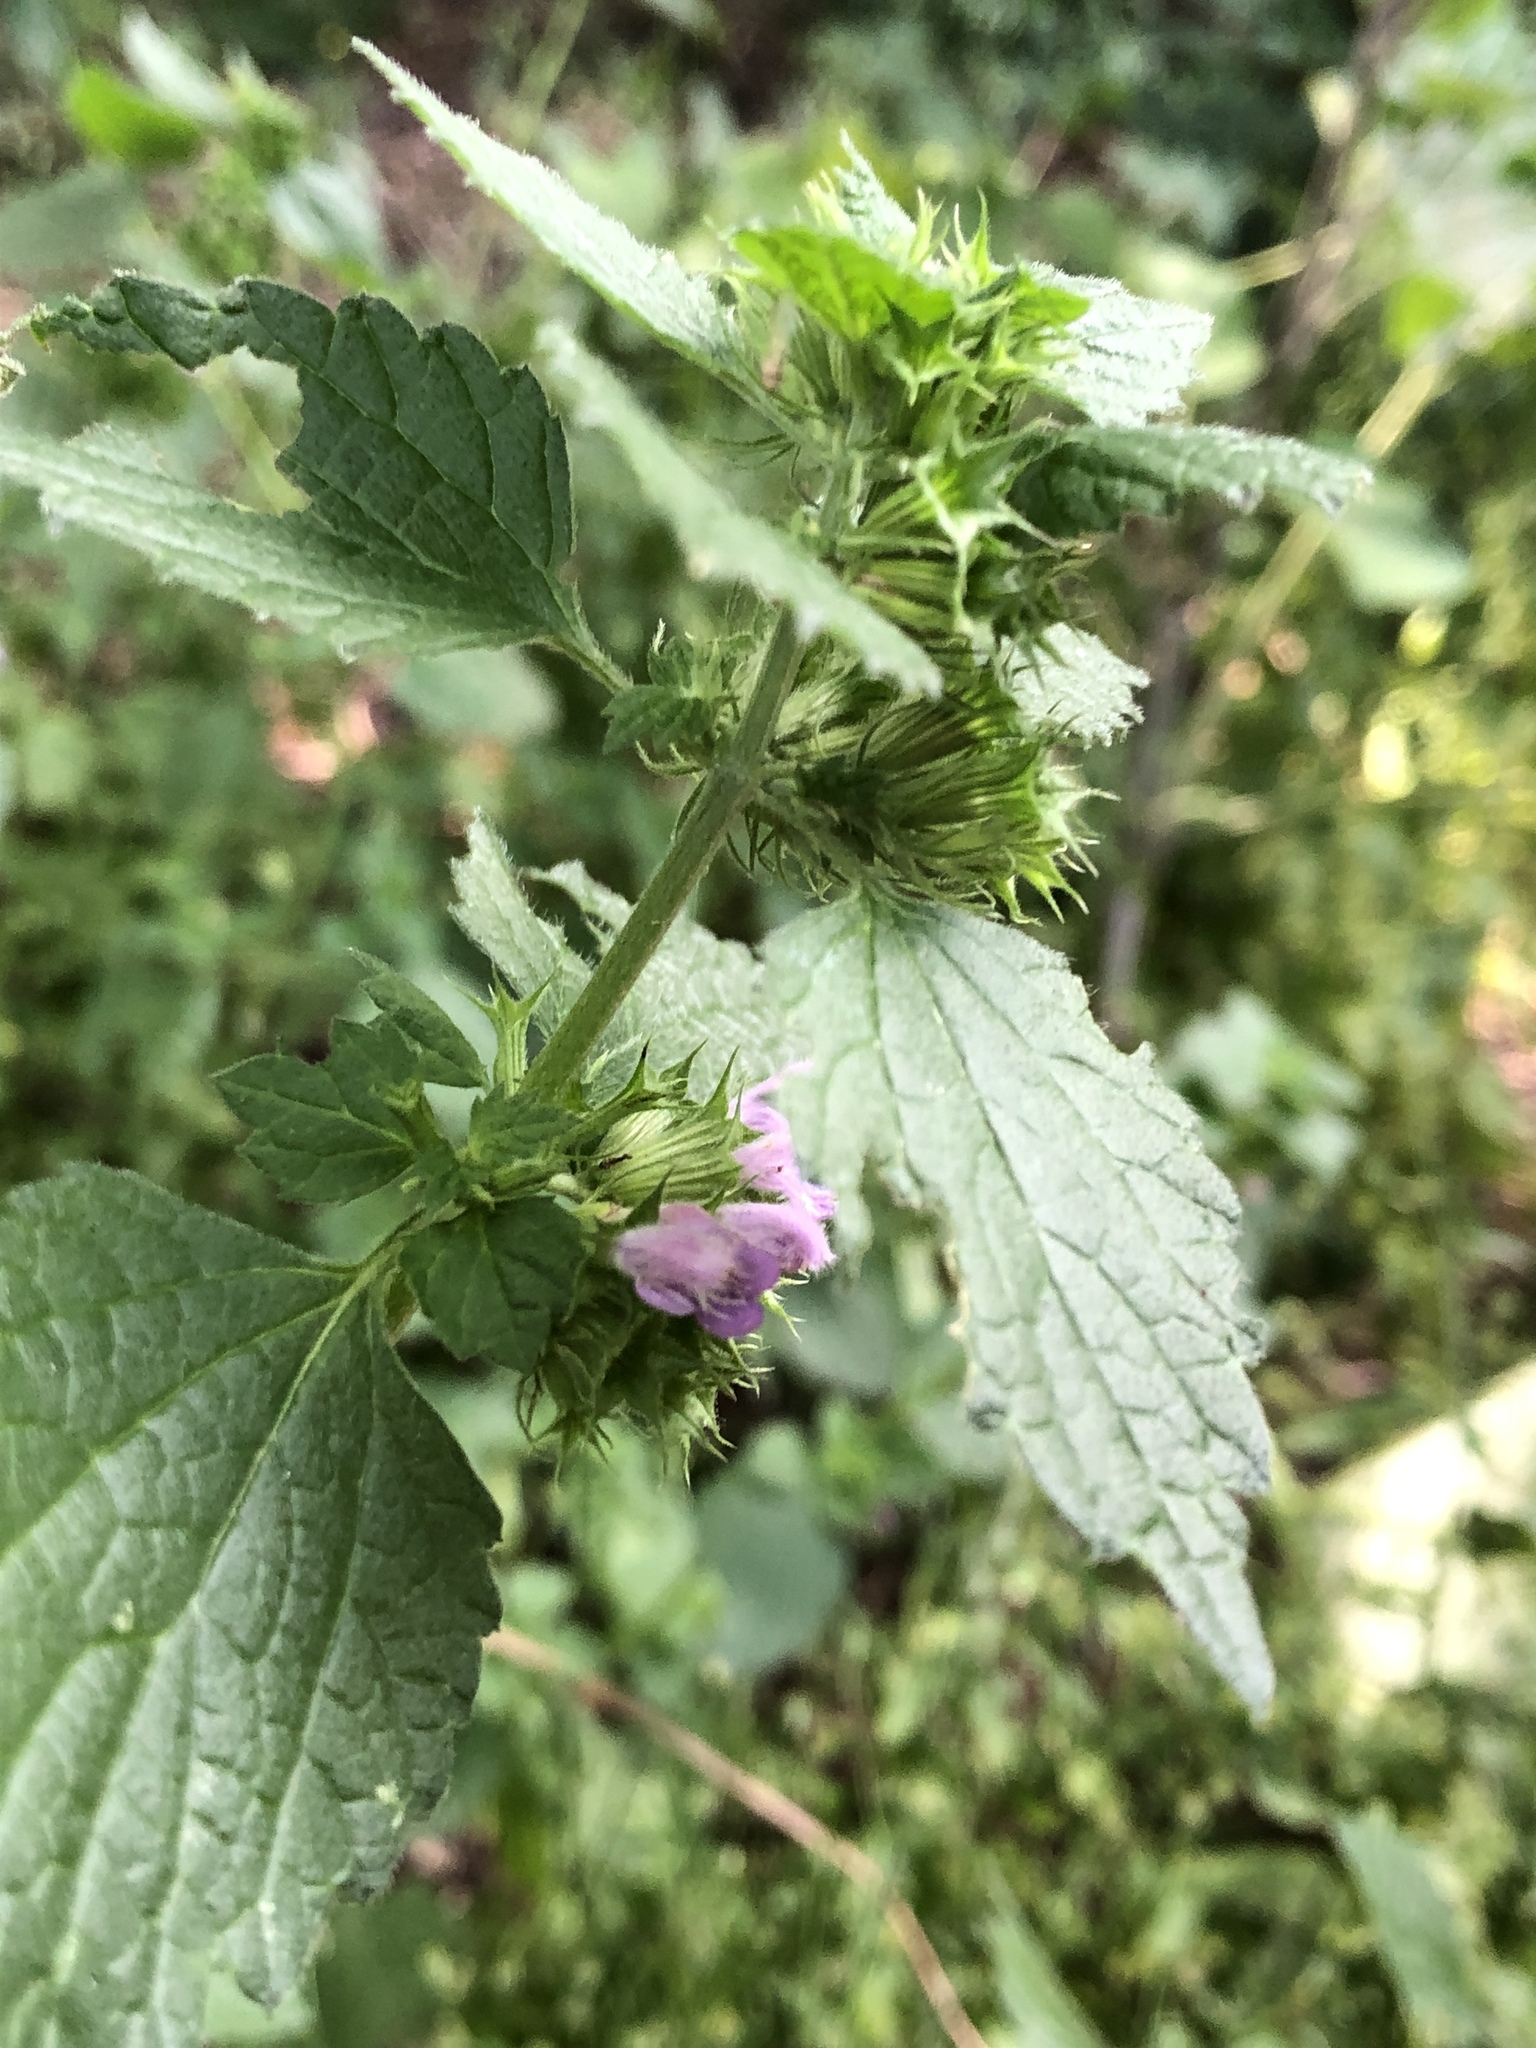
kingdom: Plantae
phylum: Tracheophyta
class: Magnoliopsida
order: Lamiales
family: Lamiaceae
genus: Ballota
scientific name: Ballota nigra
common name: Black horehound
